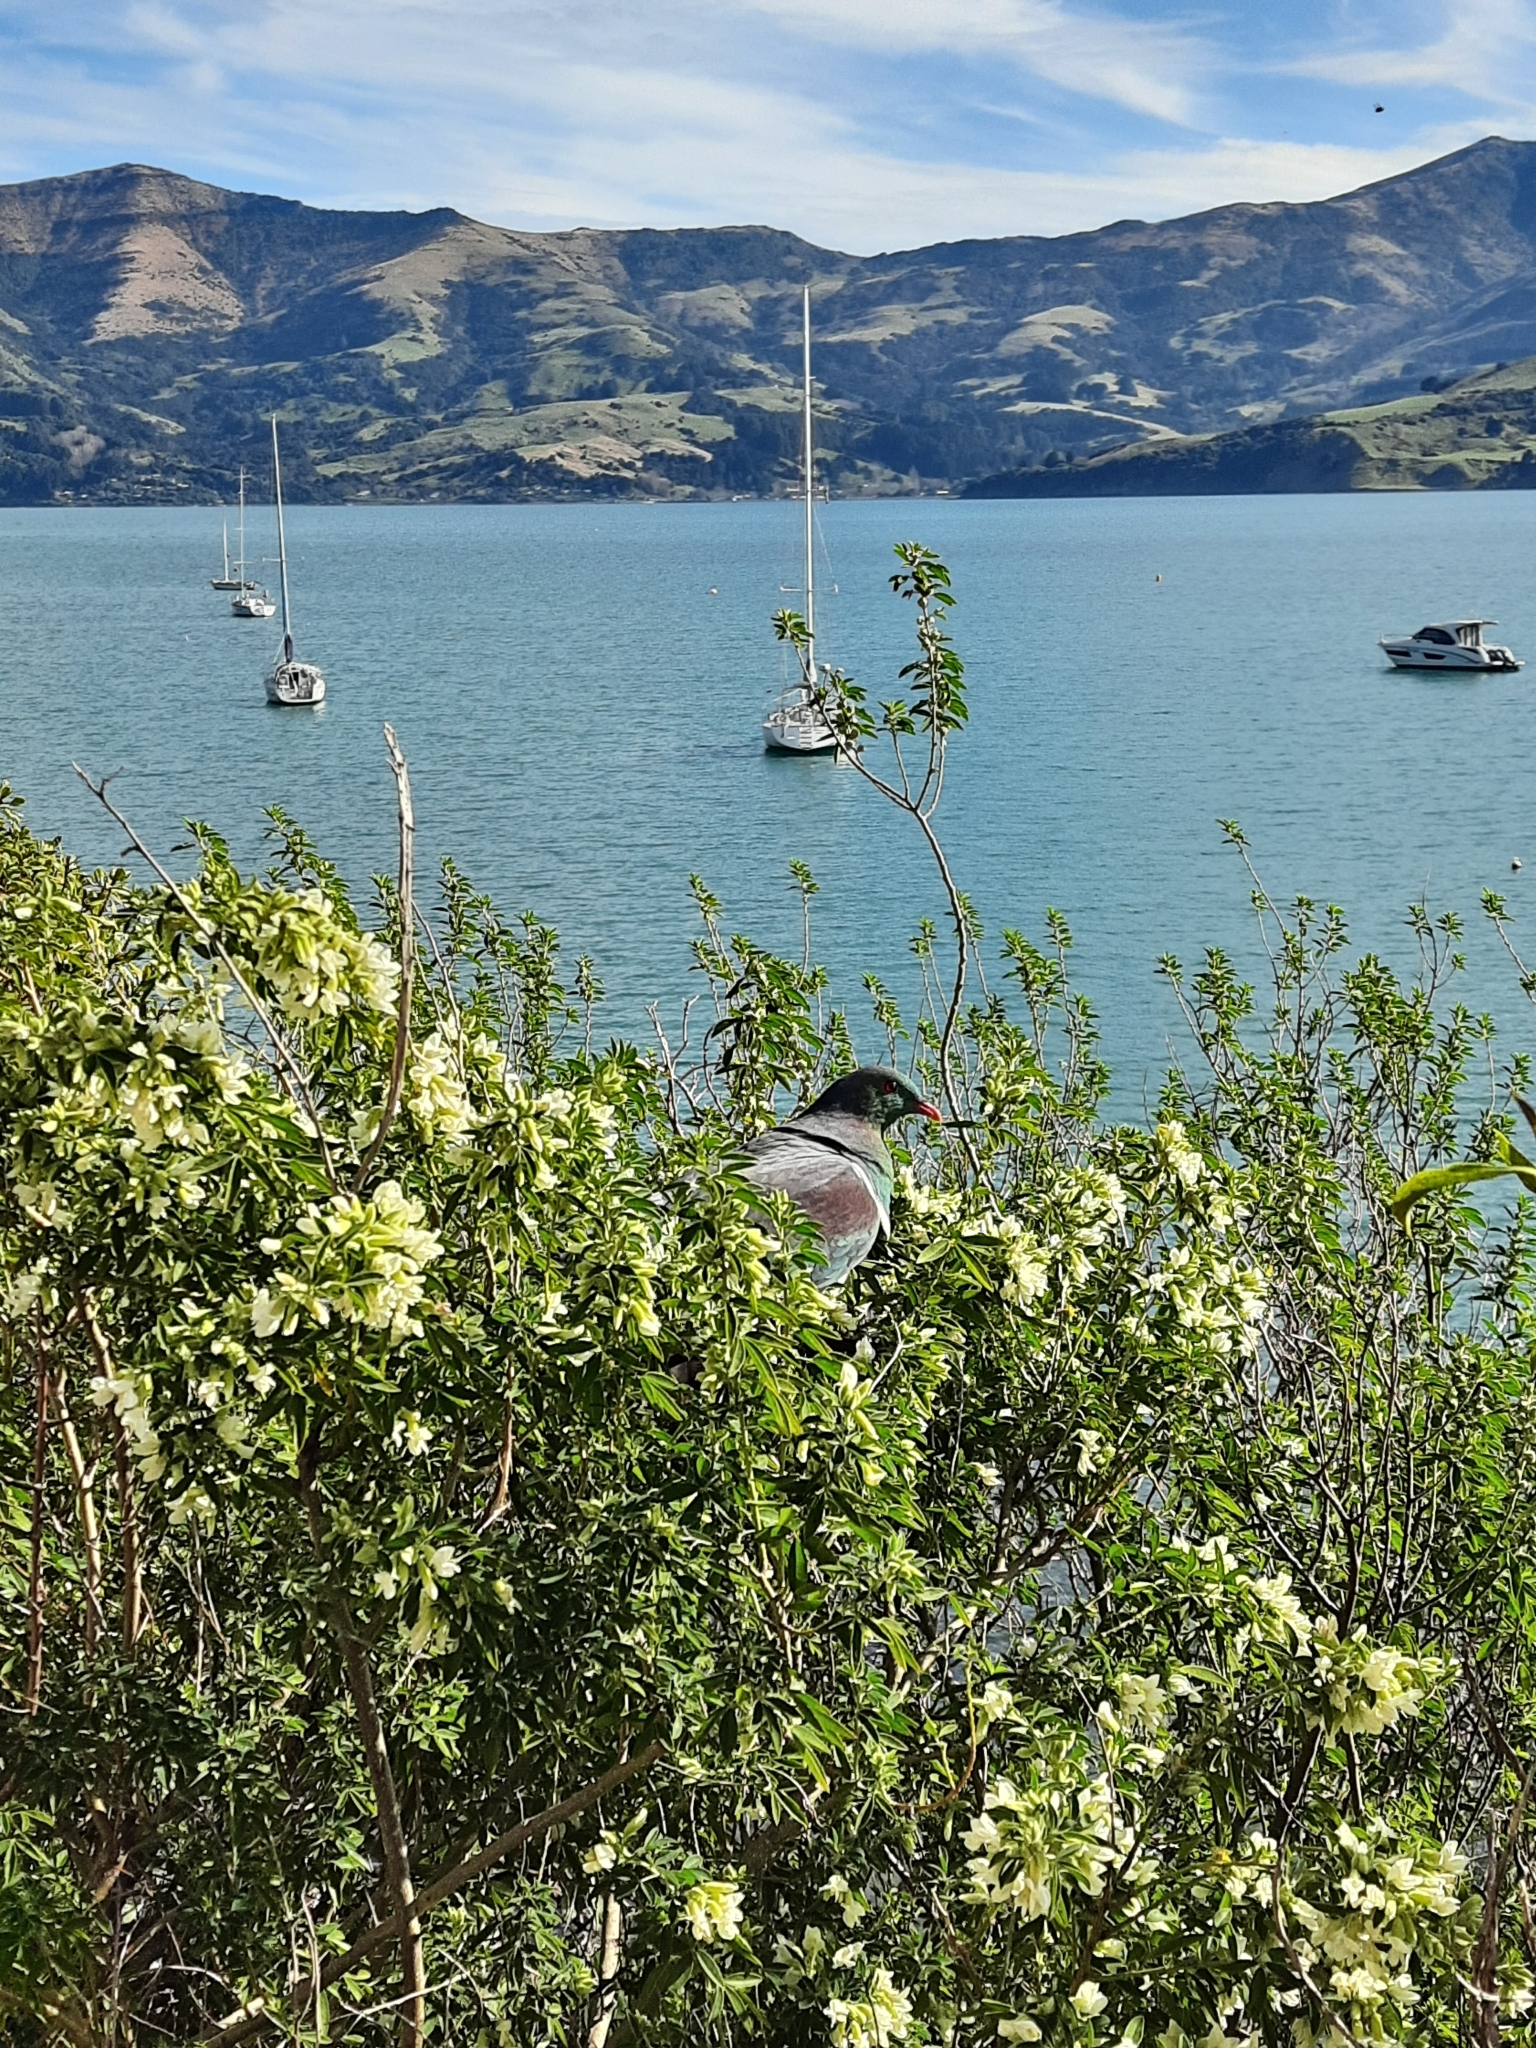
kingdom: Animalia
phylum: Chordata
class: Aves
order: Columbiformes
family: Columbidae
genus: Hemiphaga
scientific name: Hemiphaga novaeseelandiae
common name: New zealand pigeon
